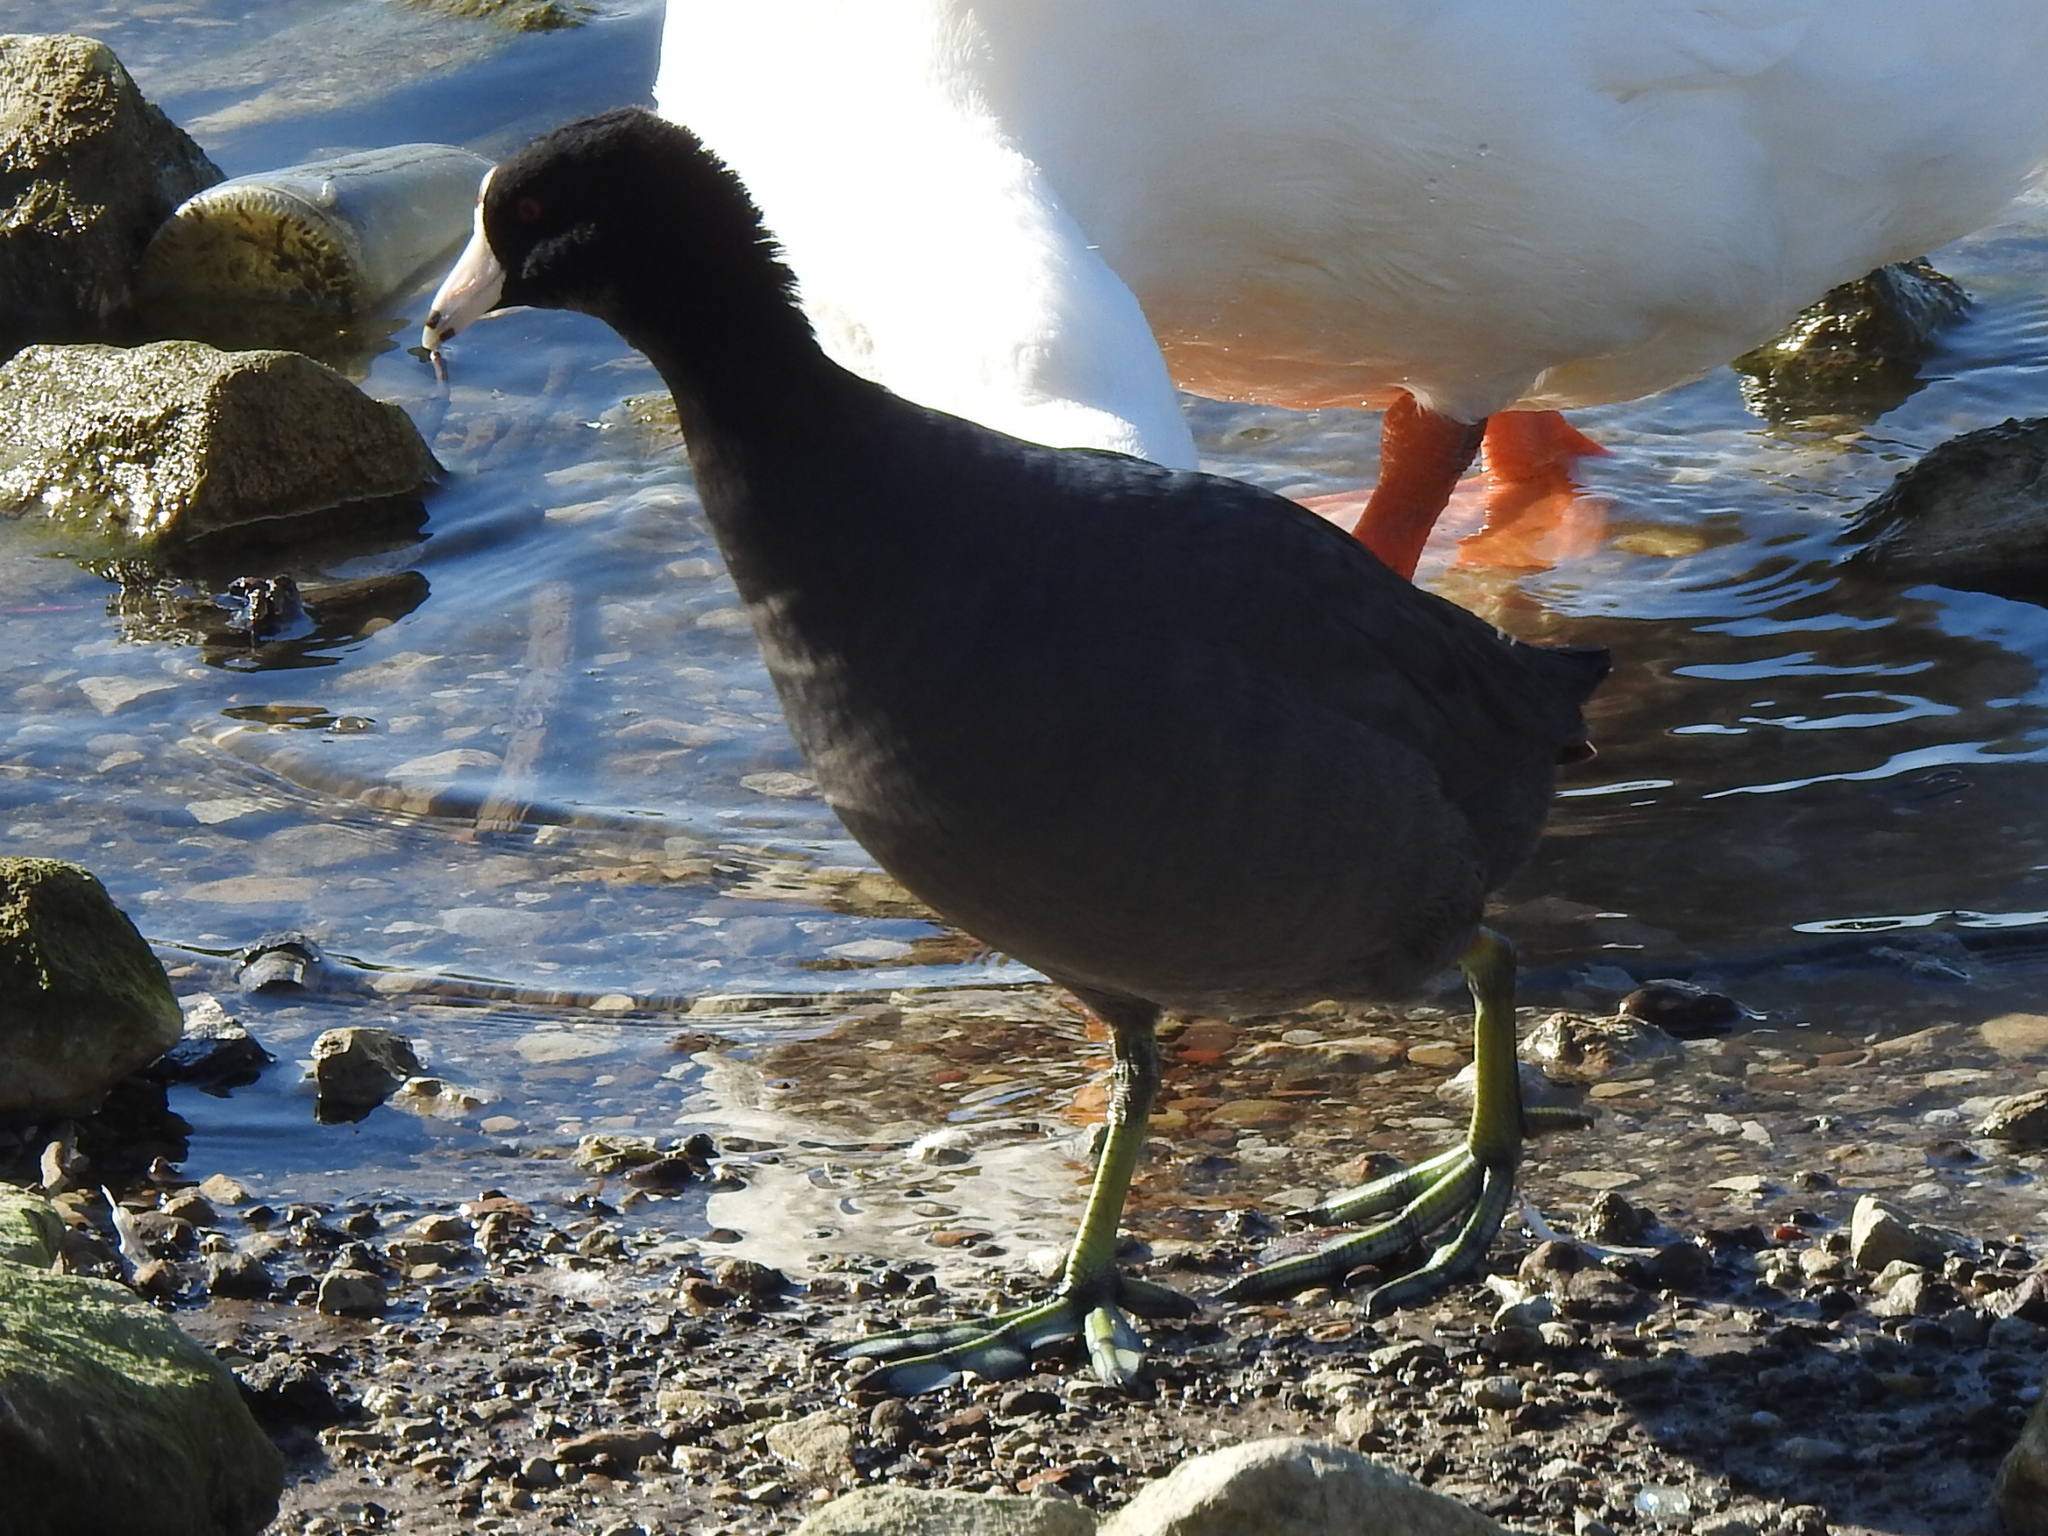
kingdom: Animalia
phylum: Chordata
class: Aves
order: Gruiformes
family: Rallidae
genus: Fulica
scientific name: Fulica americana
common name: American coot
